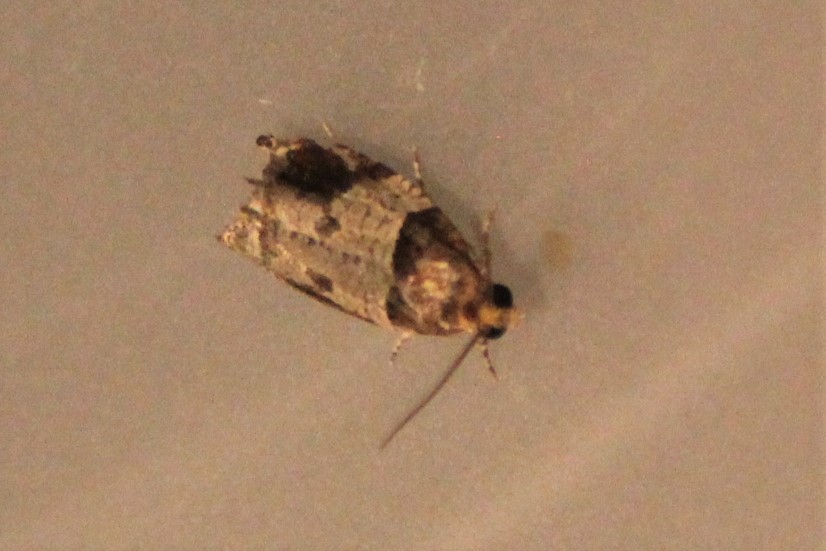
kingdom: Animalia
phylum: Arthropoda
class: Insecta
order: Lepidoptera
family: Tortricidae
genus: Olethreutes
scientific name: Olethreutes ferriferana
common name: Hydrangea leaftier moth
